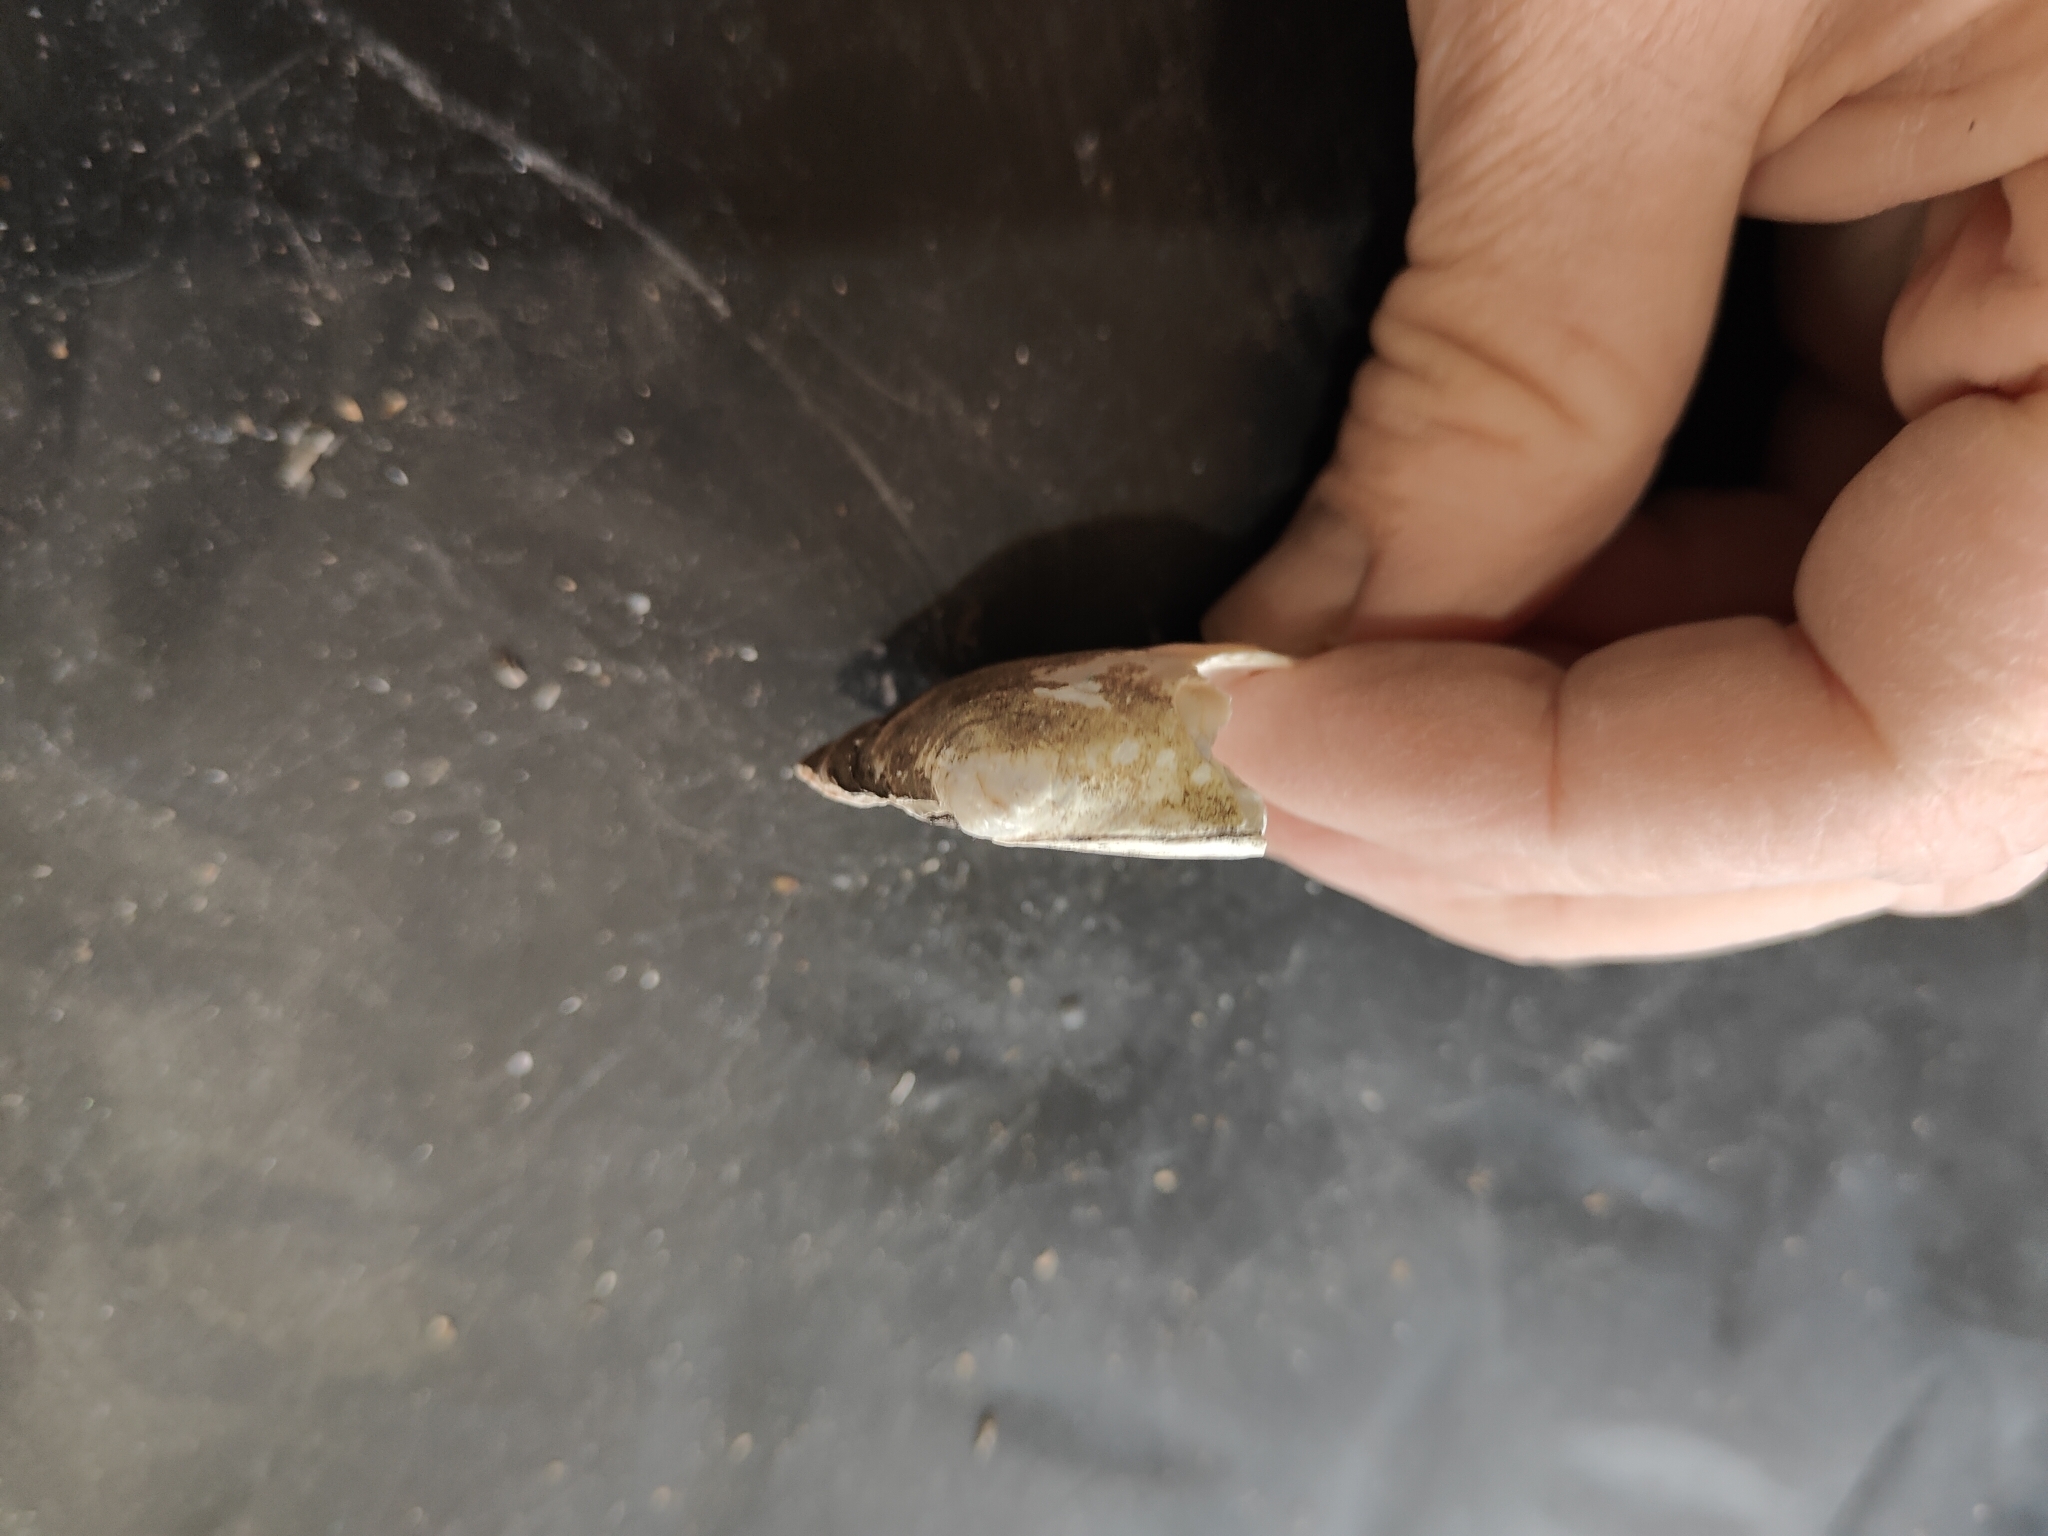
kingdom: Animalia
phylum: Mollusca
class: Bivalvia
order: Unionida
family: Unionidae
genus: Amblema
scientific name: Amblema plicata
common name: Threeridge
